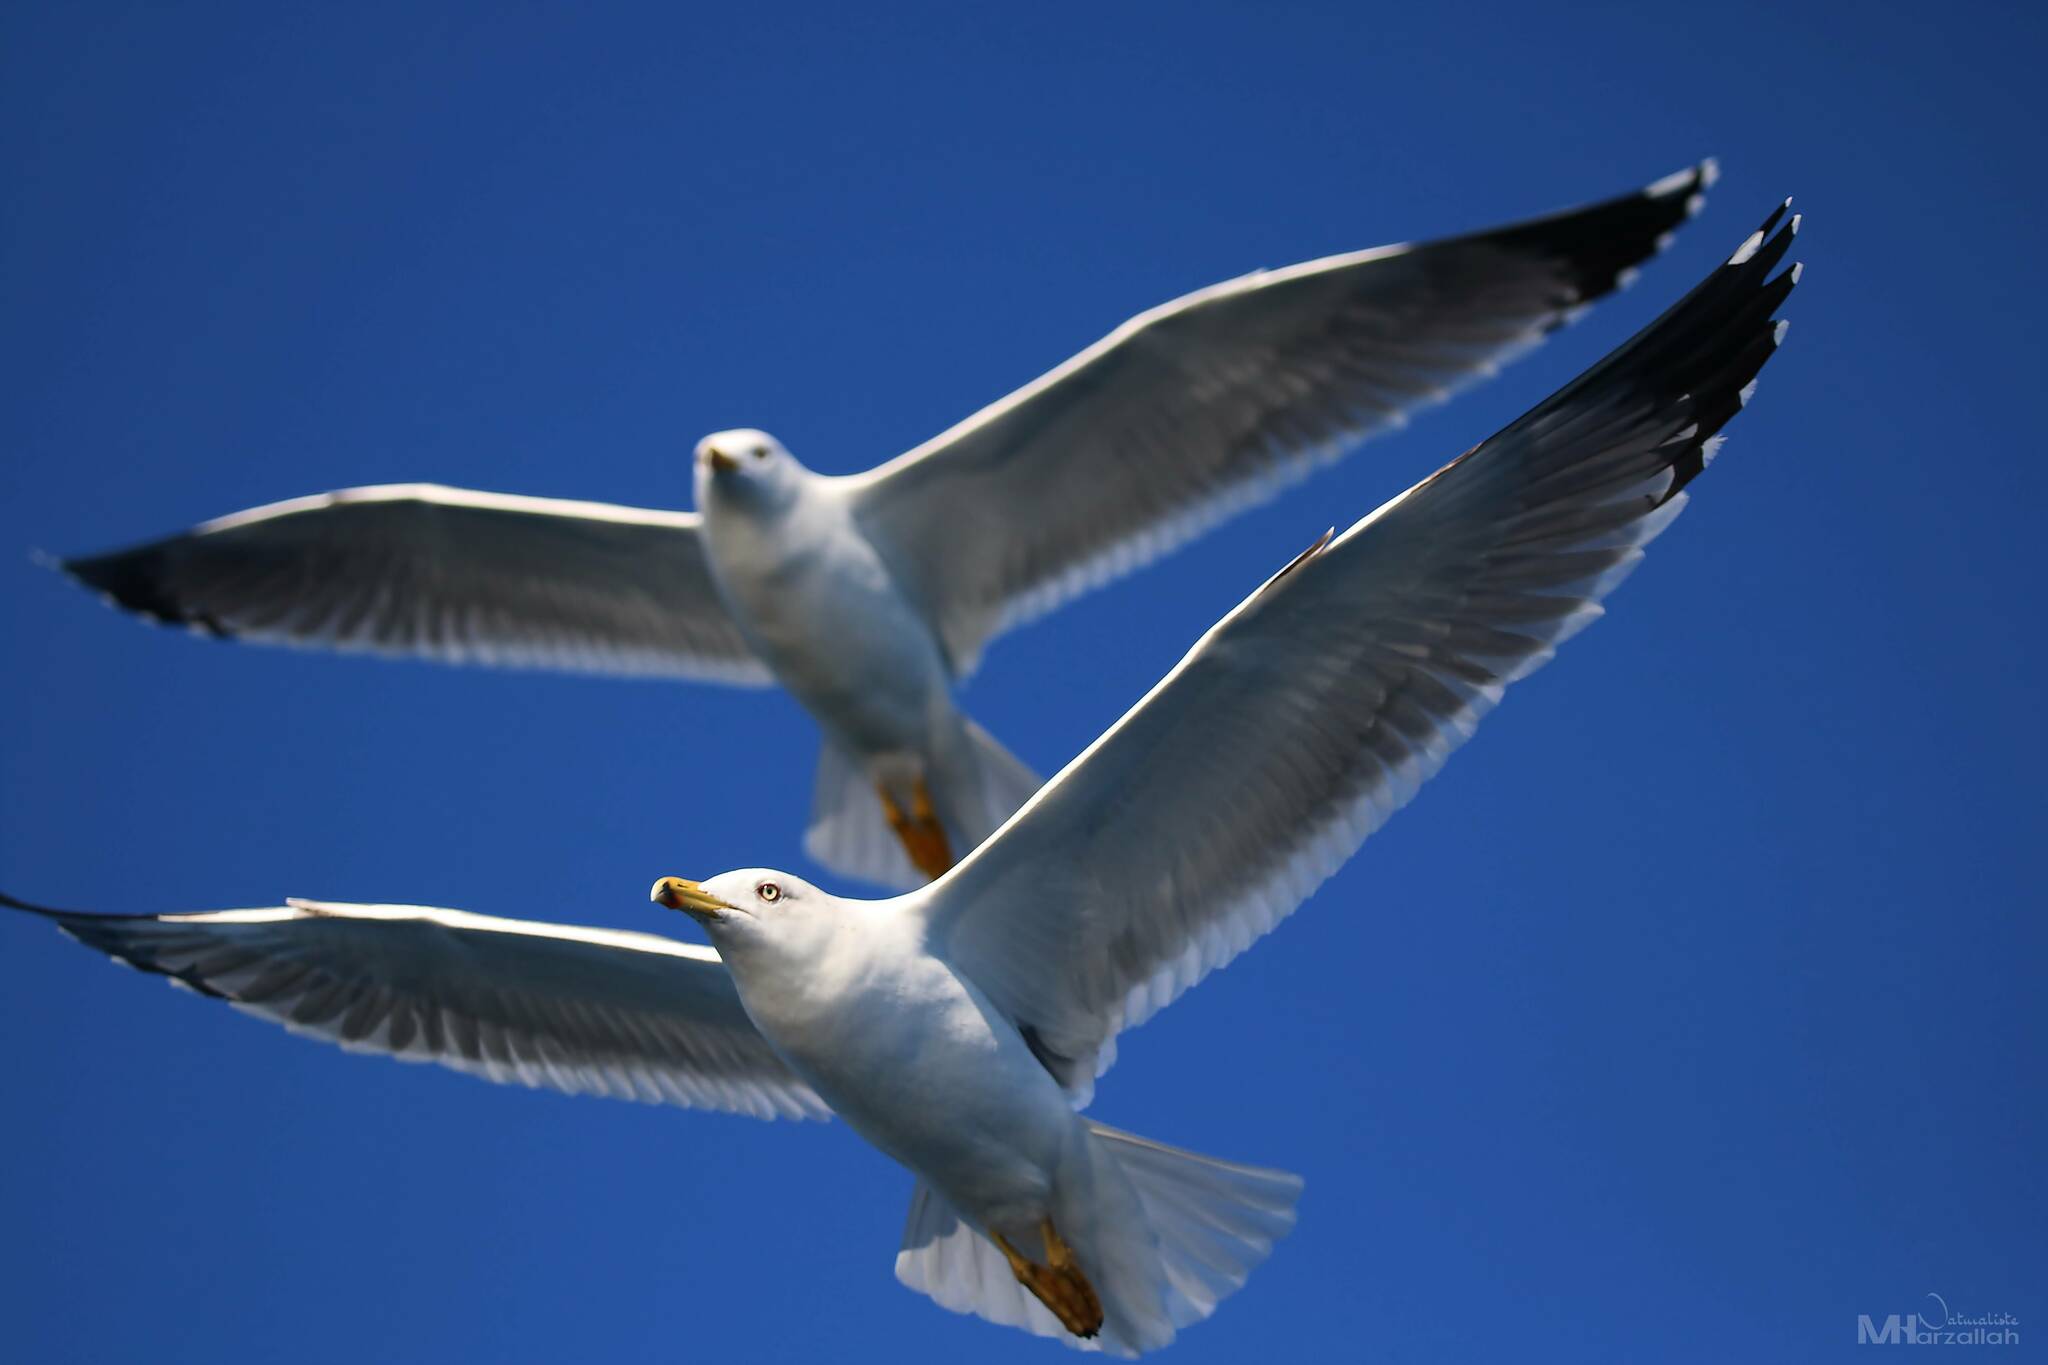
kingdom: Animalia
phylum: Chordata
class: Aves
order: Charadriiformes
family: Laridae
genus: Larus
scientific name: Larus michahellis
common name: Yellow-legged gull
